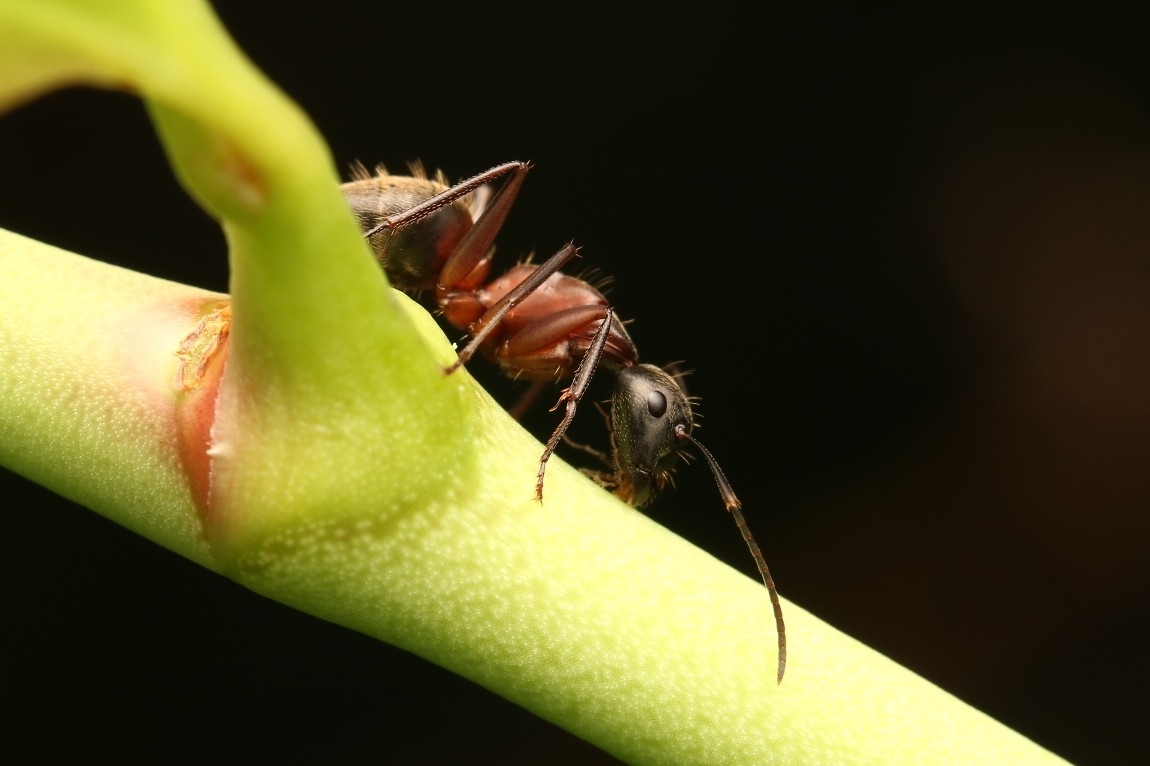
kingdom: Animalia
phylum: Arthropoda
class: Insecta
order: Hymenoptera
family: Formicidae
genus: Camponotus
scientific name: Camponotus chromaiodes
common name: Red carpenter ant
